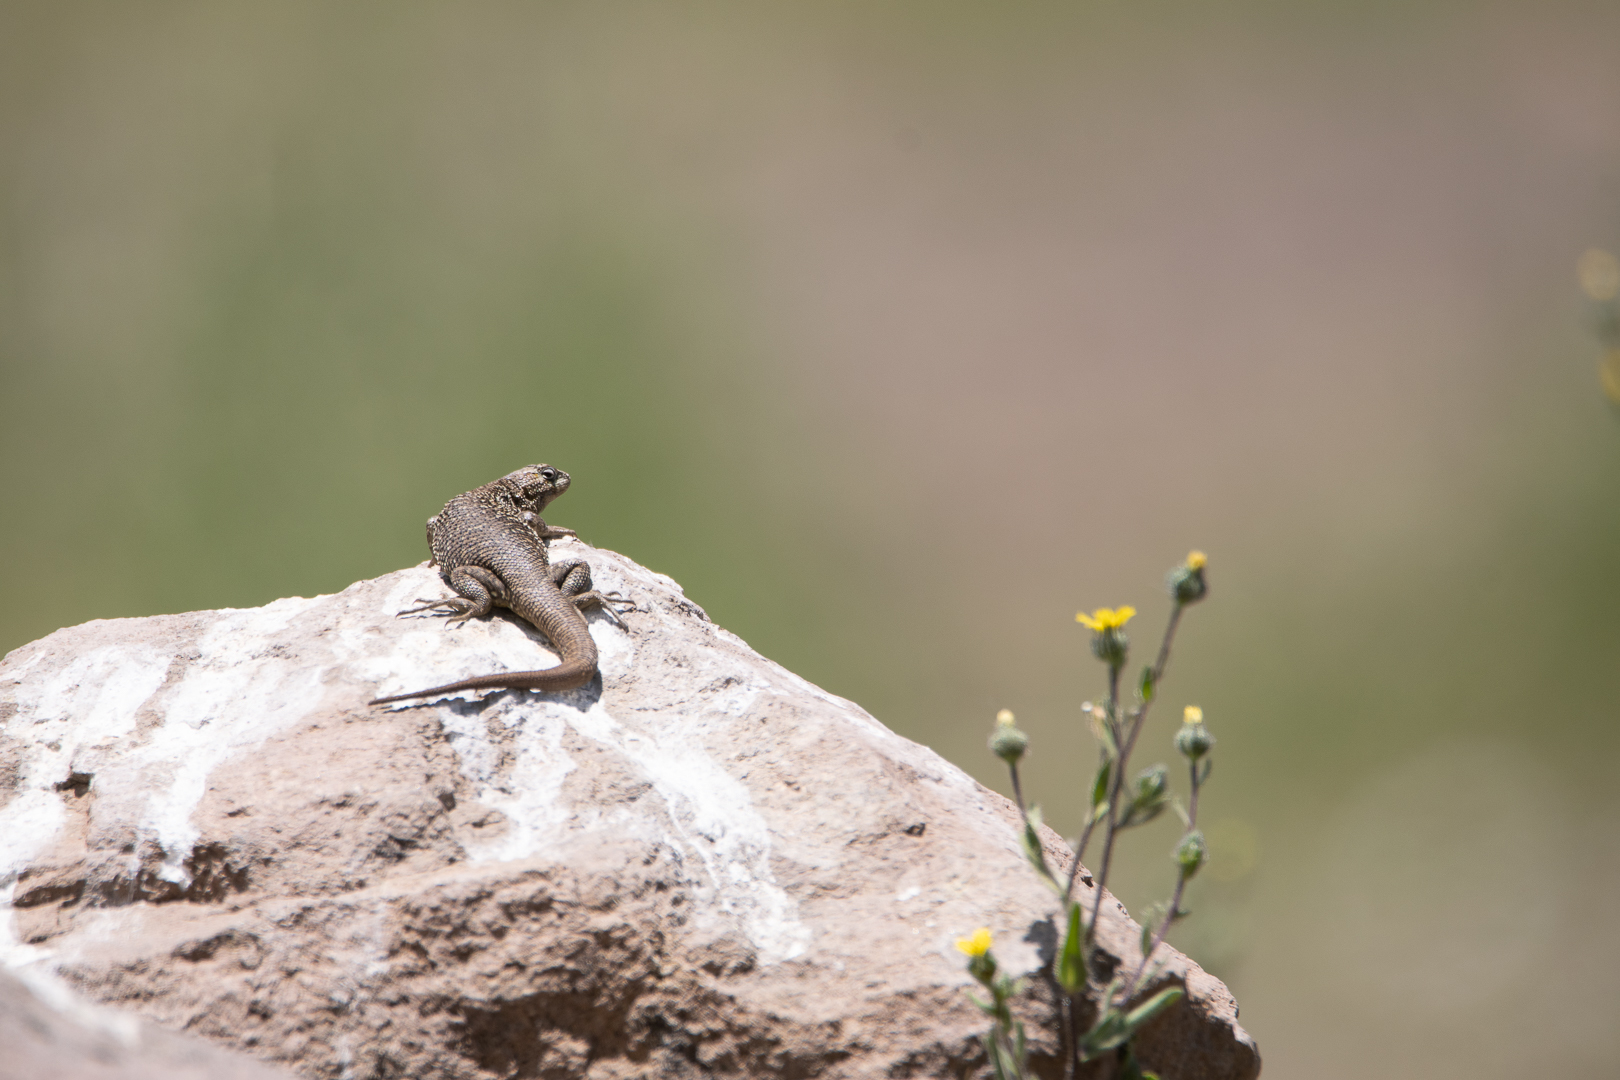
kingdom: Animalia
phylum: Chordata
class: Squamata
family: Liolaemidae
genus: Liolaemus
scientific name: Liolaemus bellii
